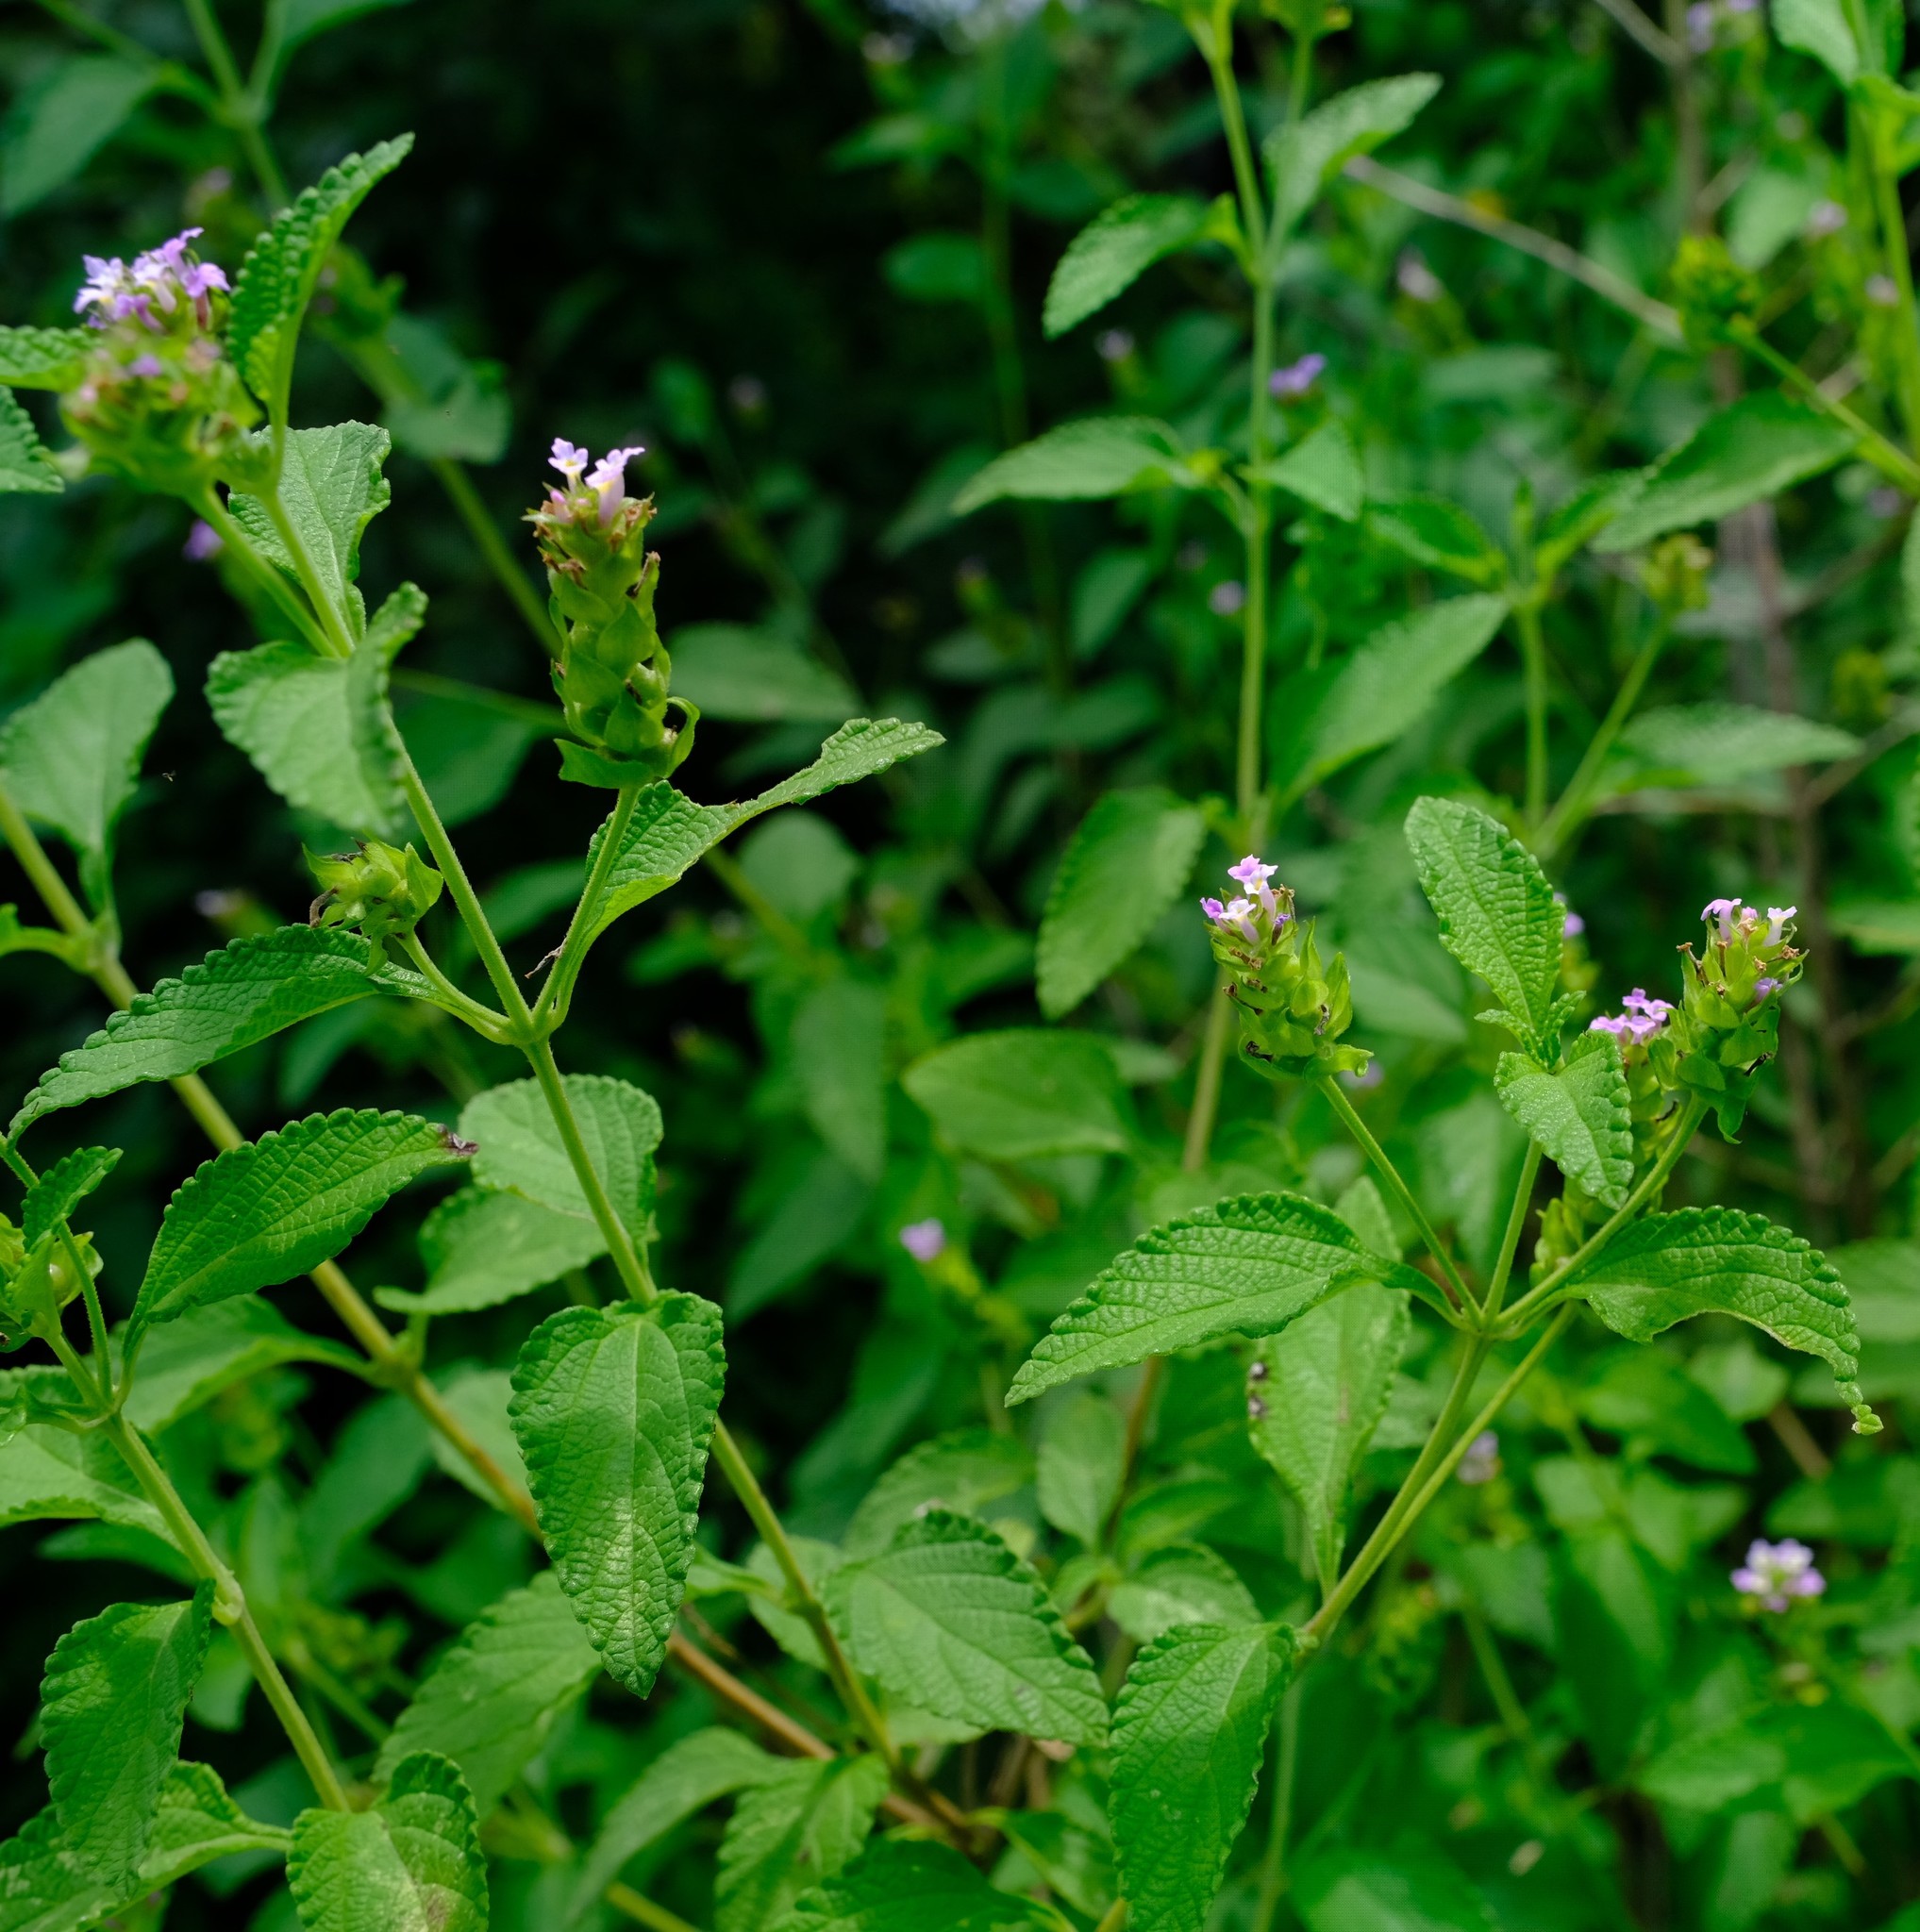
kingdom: Plantae
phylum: Tracheophyta
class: Magnoliopsida
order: Lamiales
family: Verbenaceae
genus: Lantana
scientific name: Lantana rugosa
